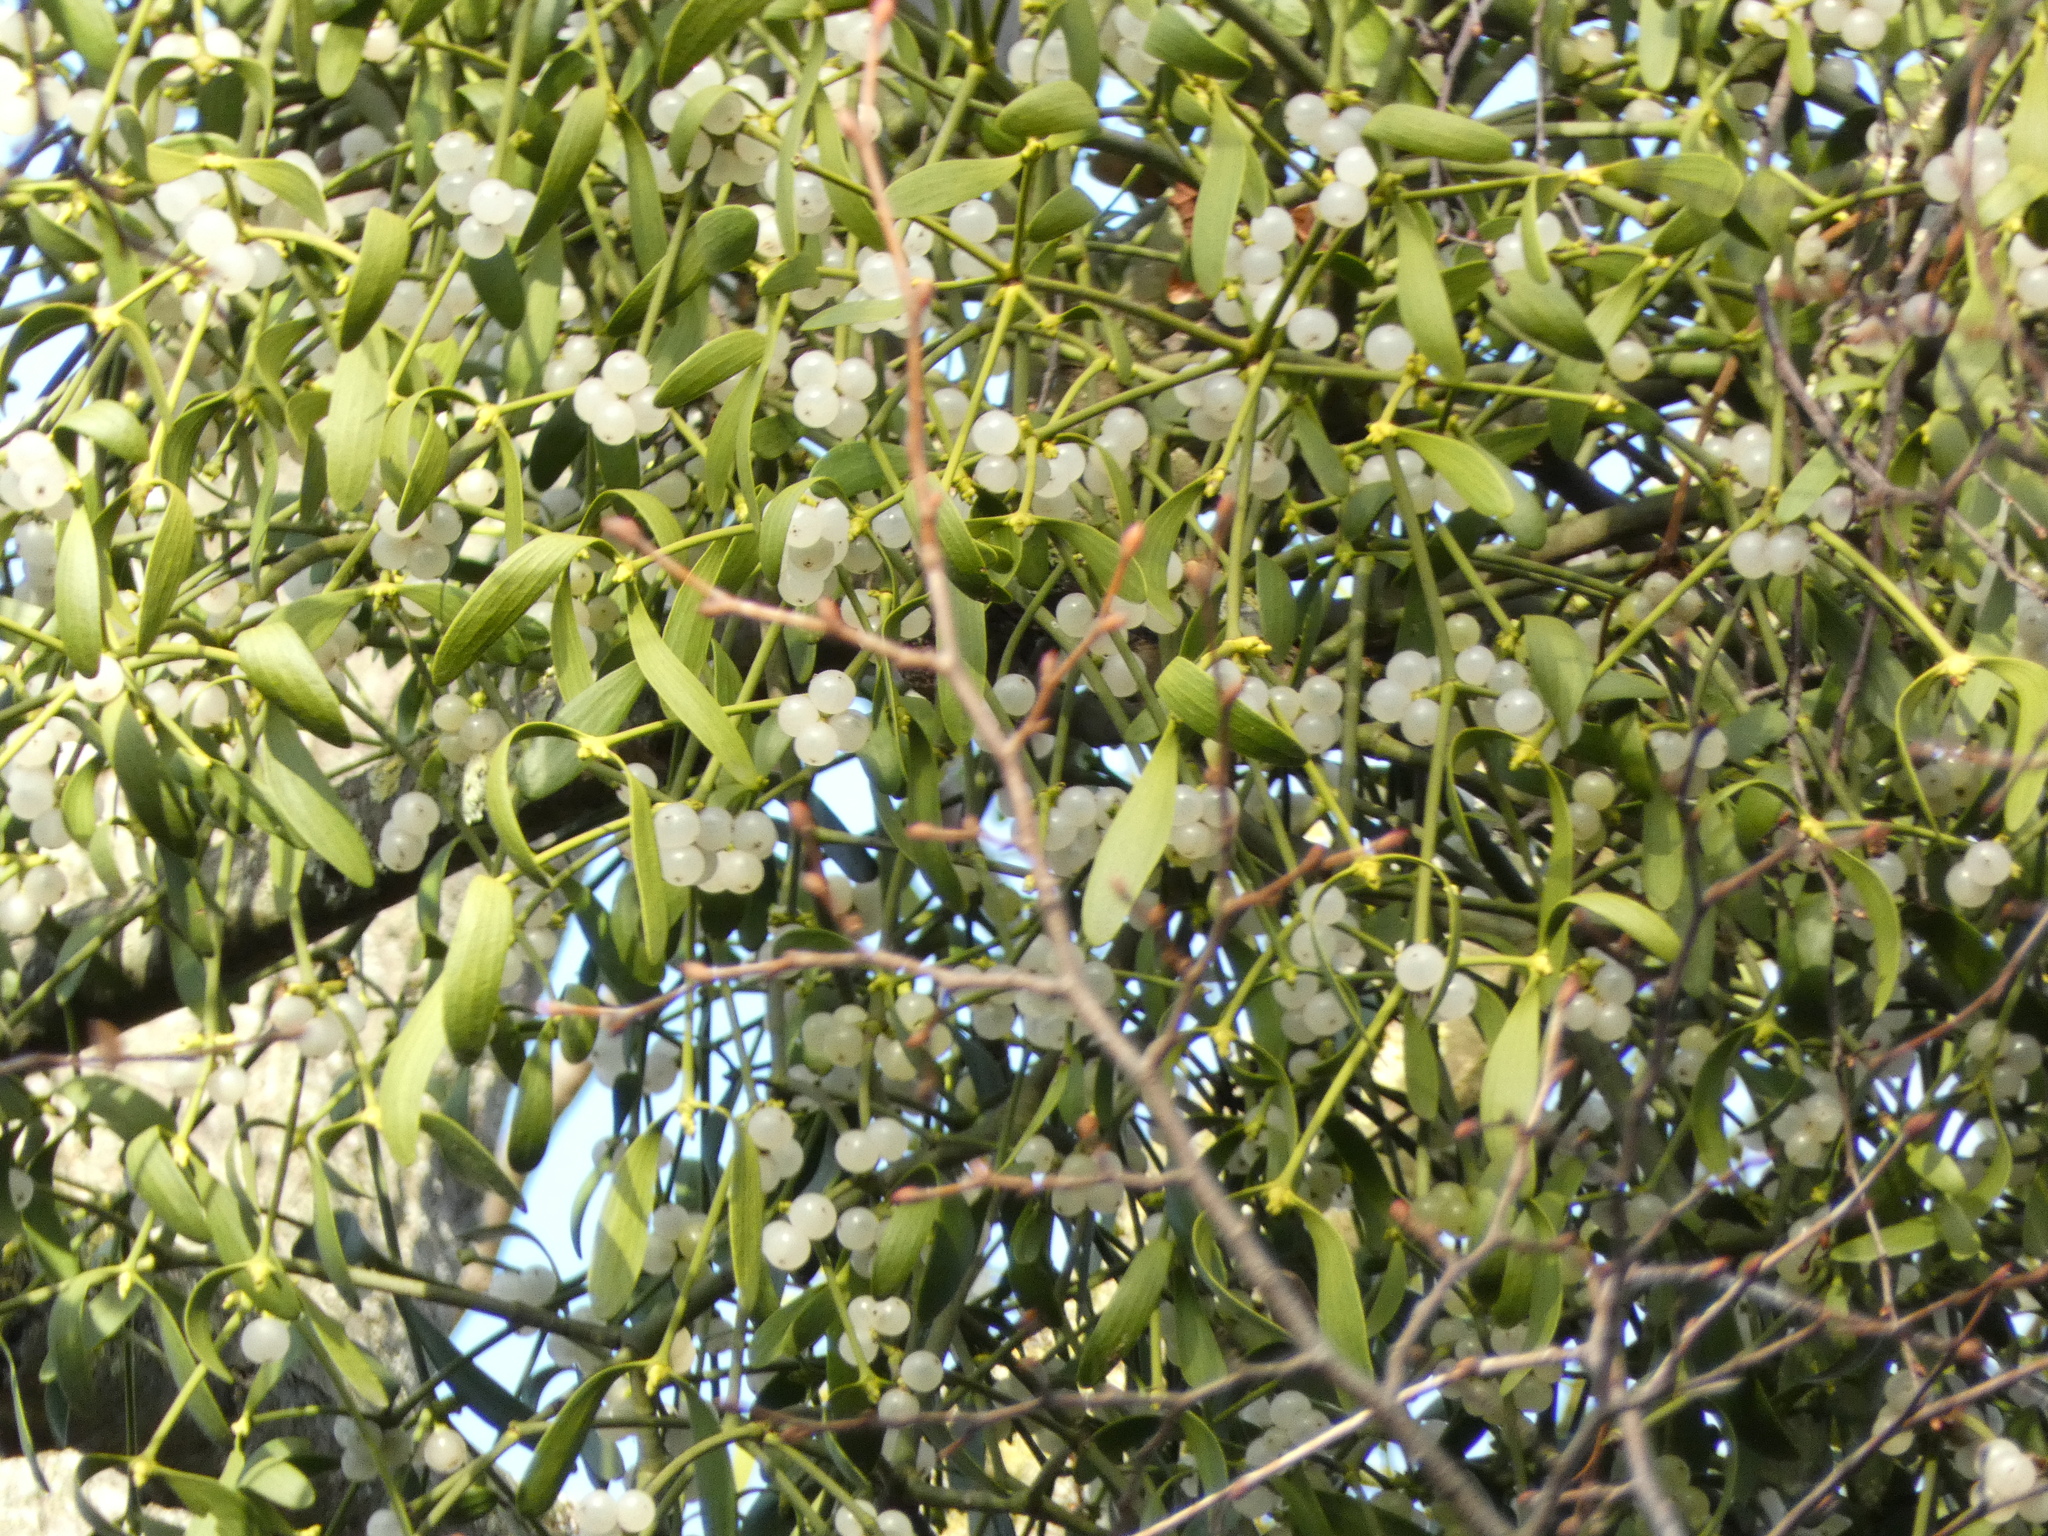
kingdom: Plantae
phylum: Tracheophyta
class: Magnoliopsida
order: Santalales
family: Viscaceae
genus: Viscum
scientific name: Viscum album
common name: Mistletoe
